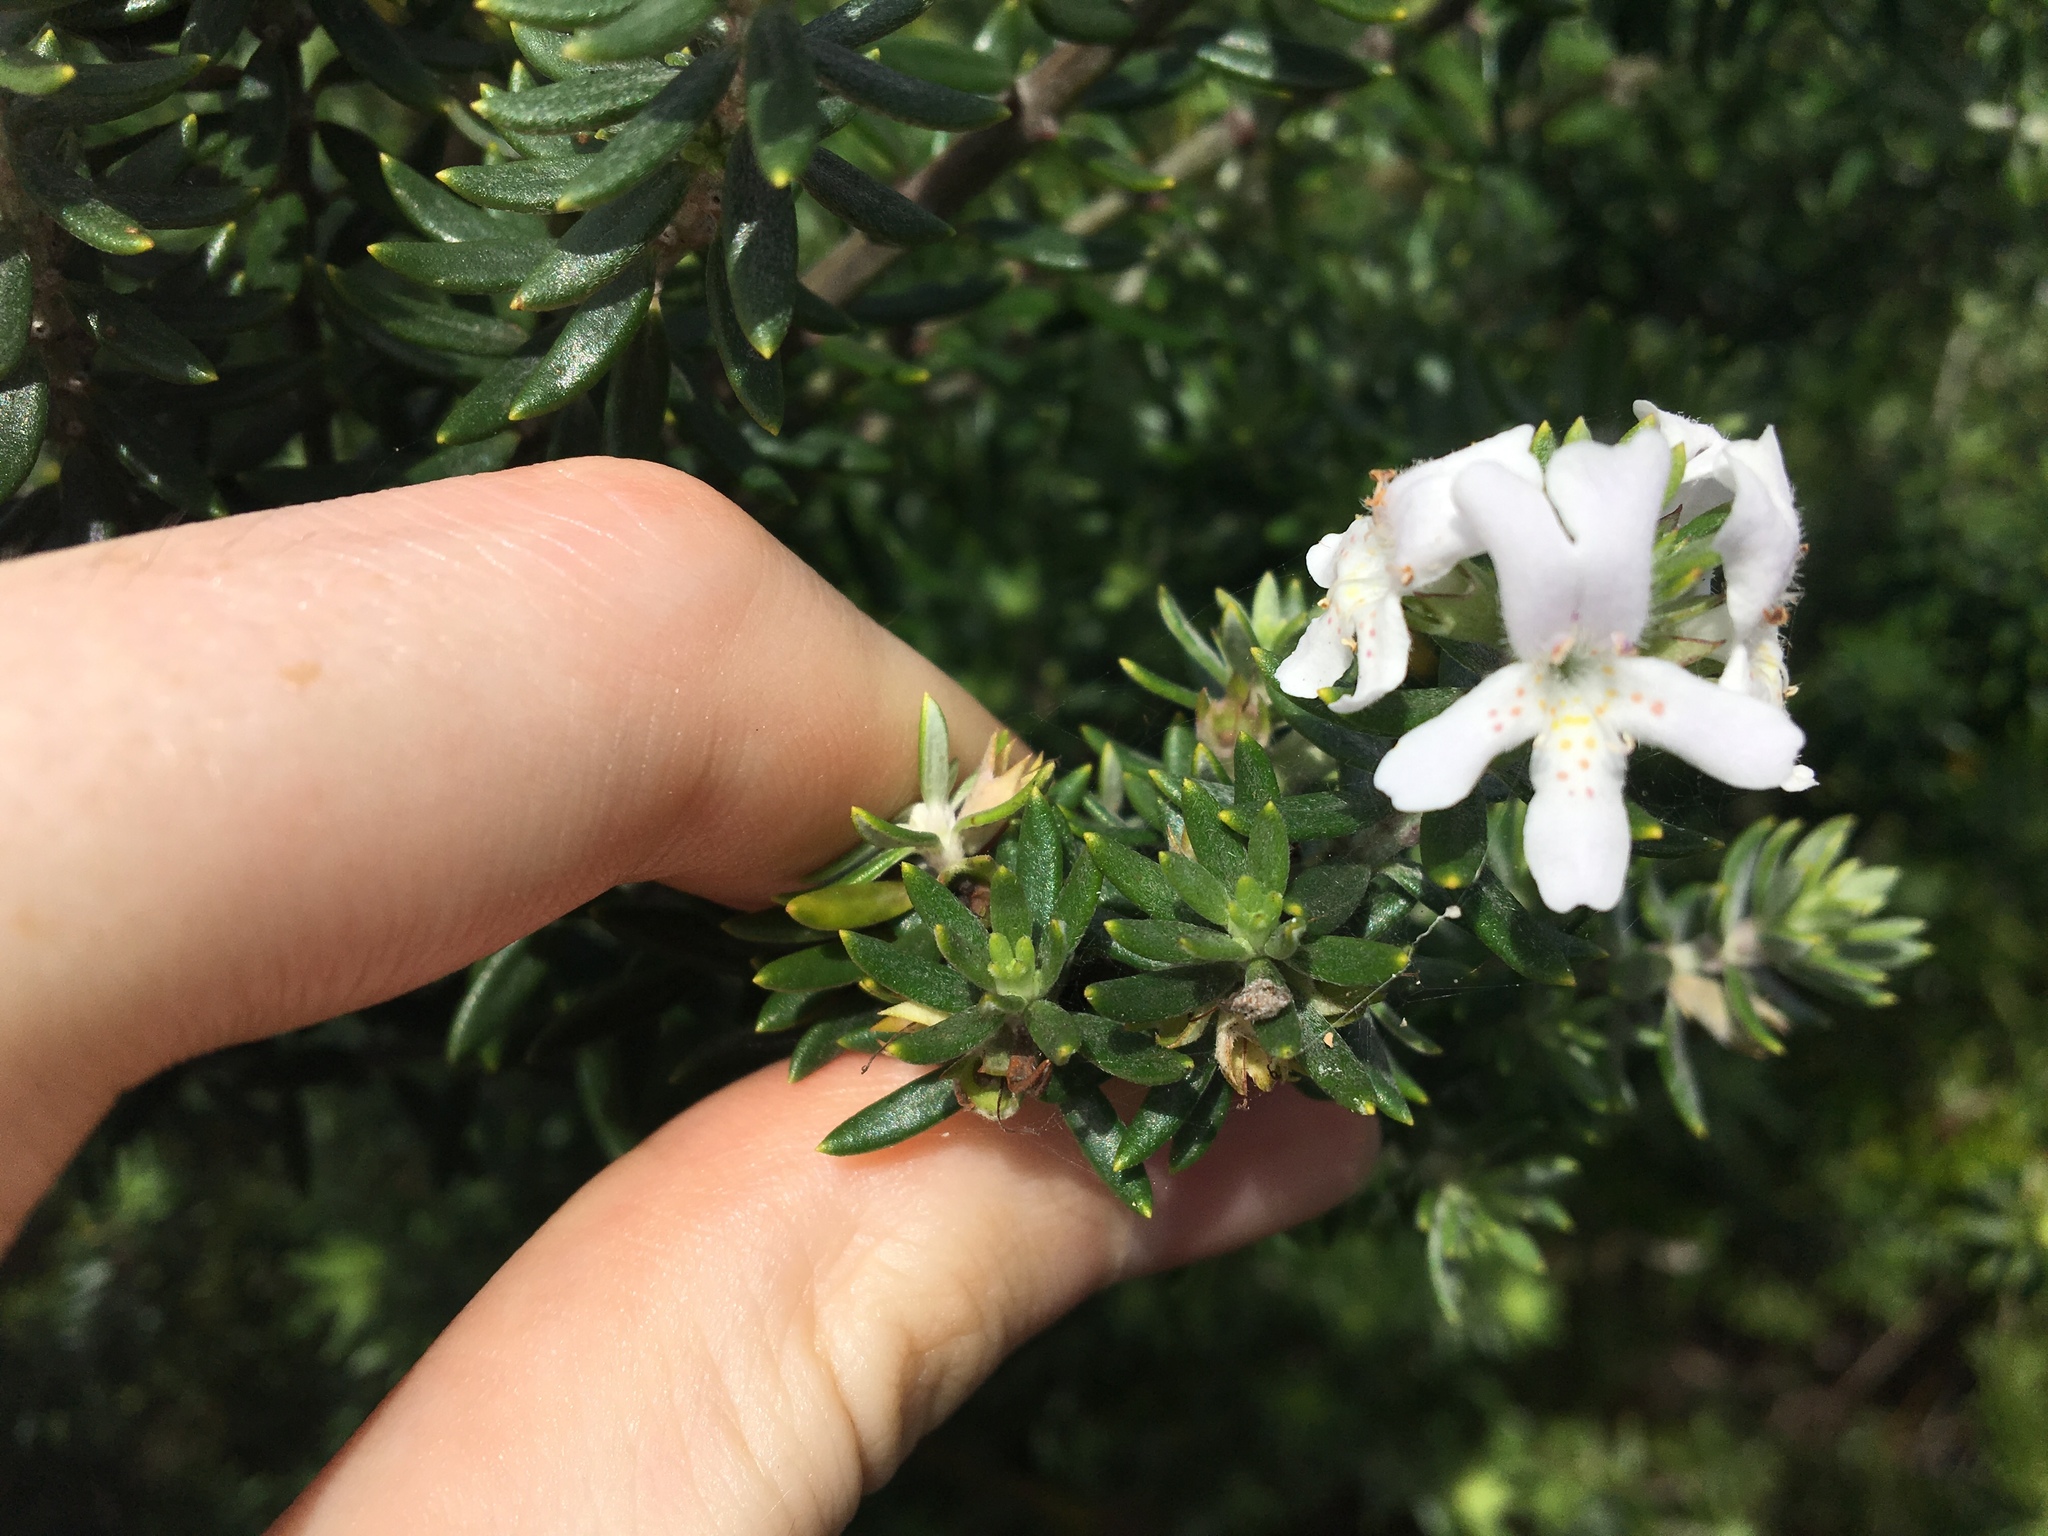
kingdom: Plantae
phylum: Tracheophyta
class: Magnoliopsida
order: Lamiales
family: Lamiaceae
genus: Westringia
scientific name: Westringia fruticosa
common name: Coastal-rosemary
